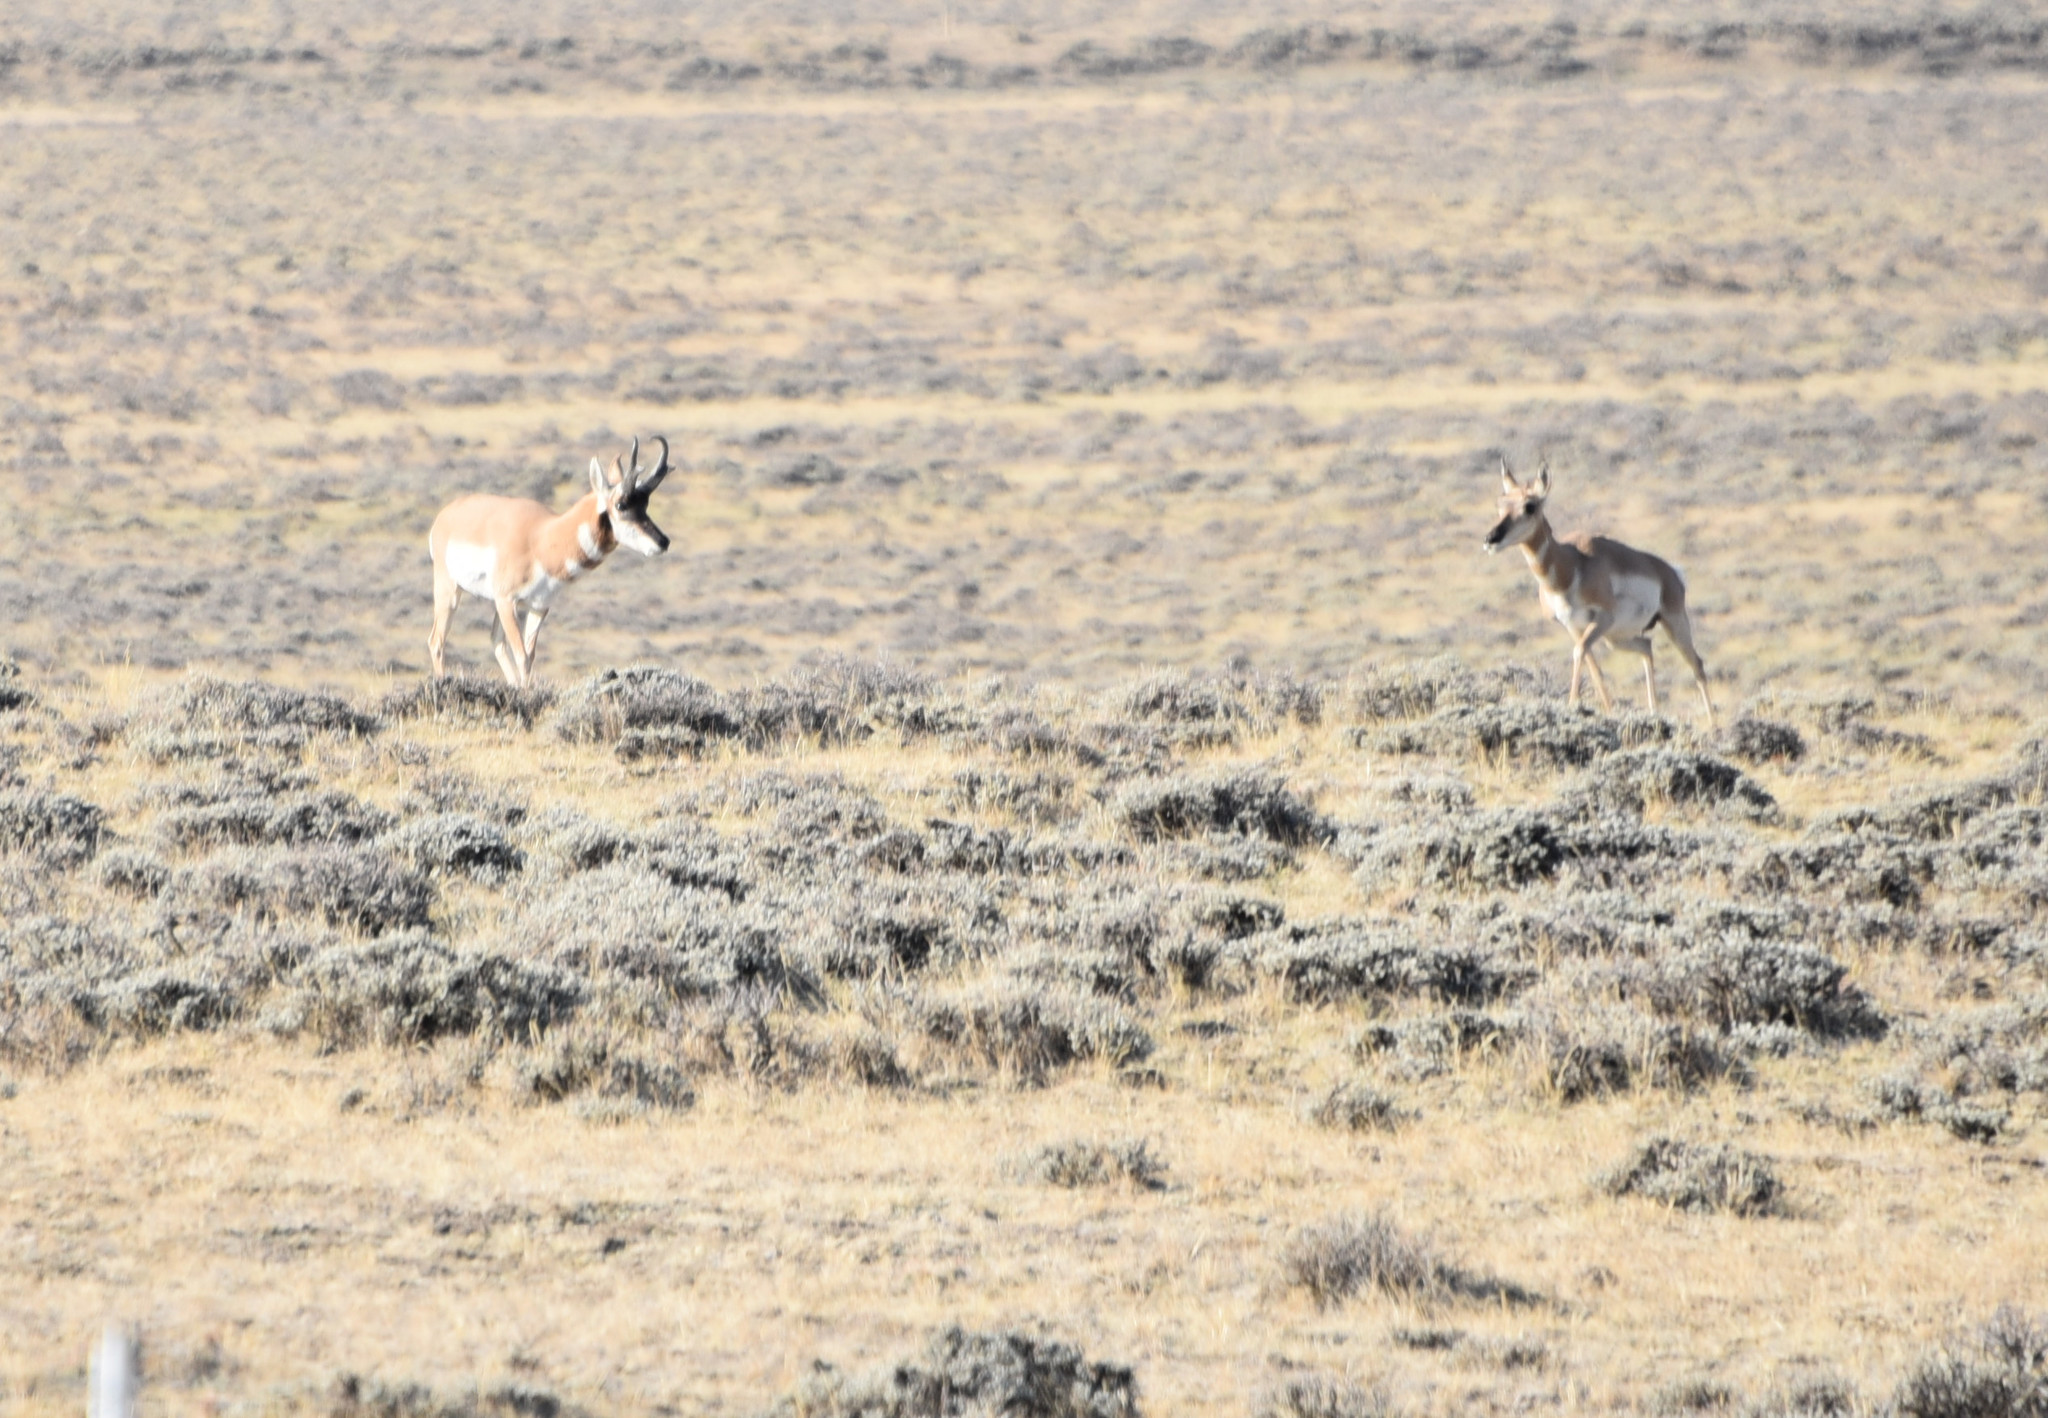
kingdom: Animalia
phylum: Chordata
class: Mammalia
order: Artiodactyla
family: Antilocapridae
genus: Antilocapra
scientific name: Antilocapra americana
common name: Pronghorn
